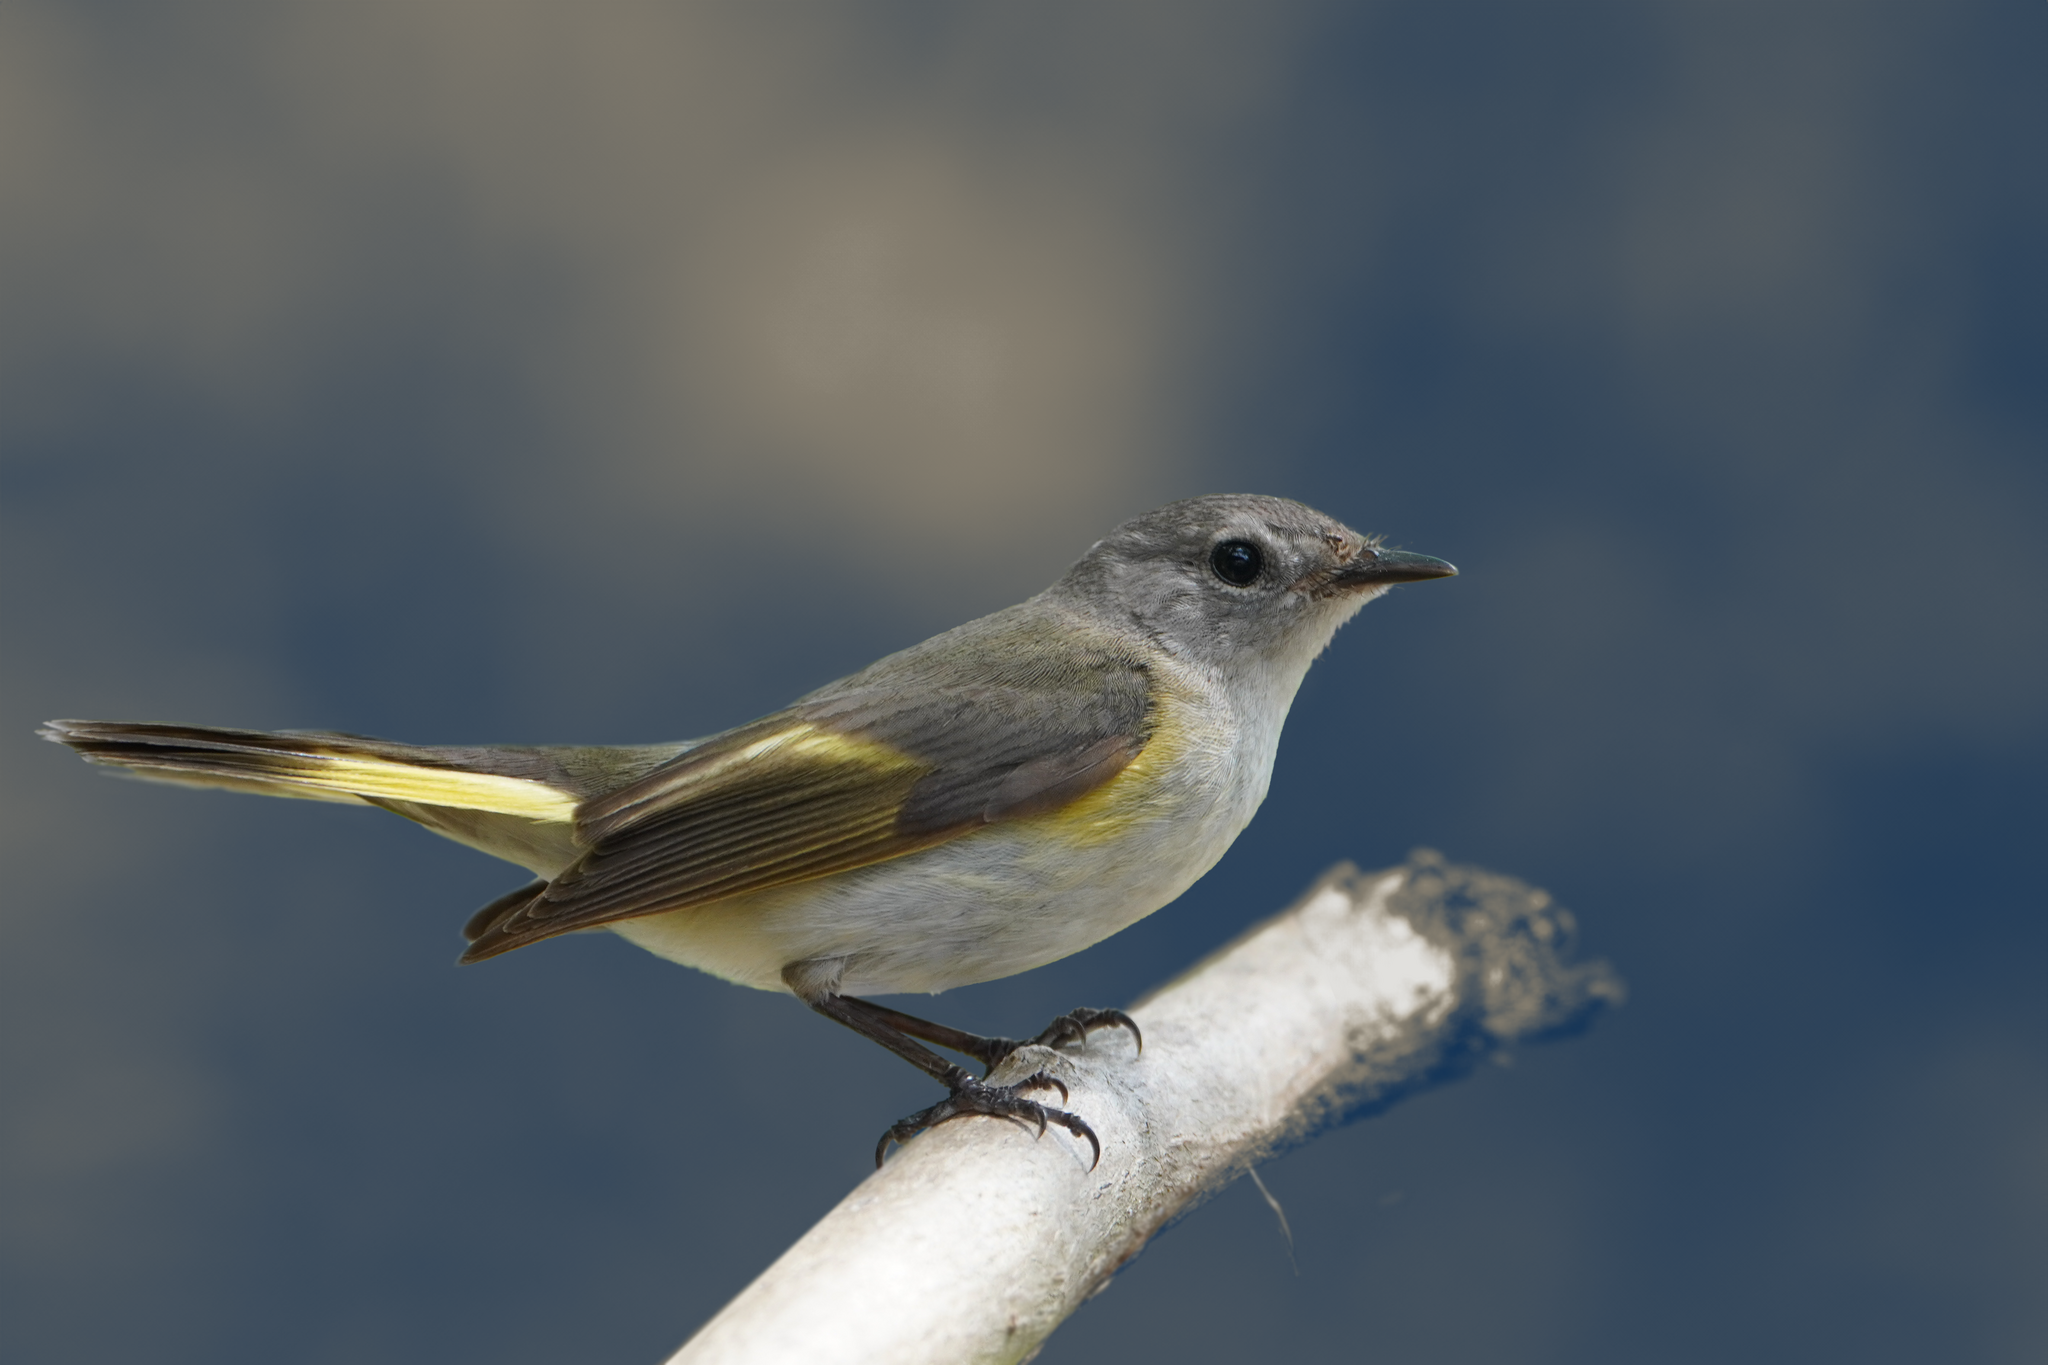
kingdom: Animalia
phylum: Chordata
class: Aves
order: Passeriformes
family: Parulidae
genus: Setophaga
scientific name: Setophaga ruticilla
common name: American redstart
